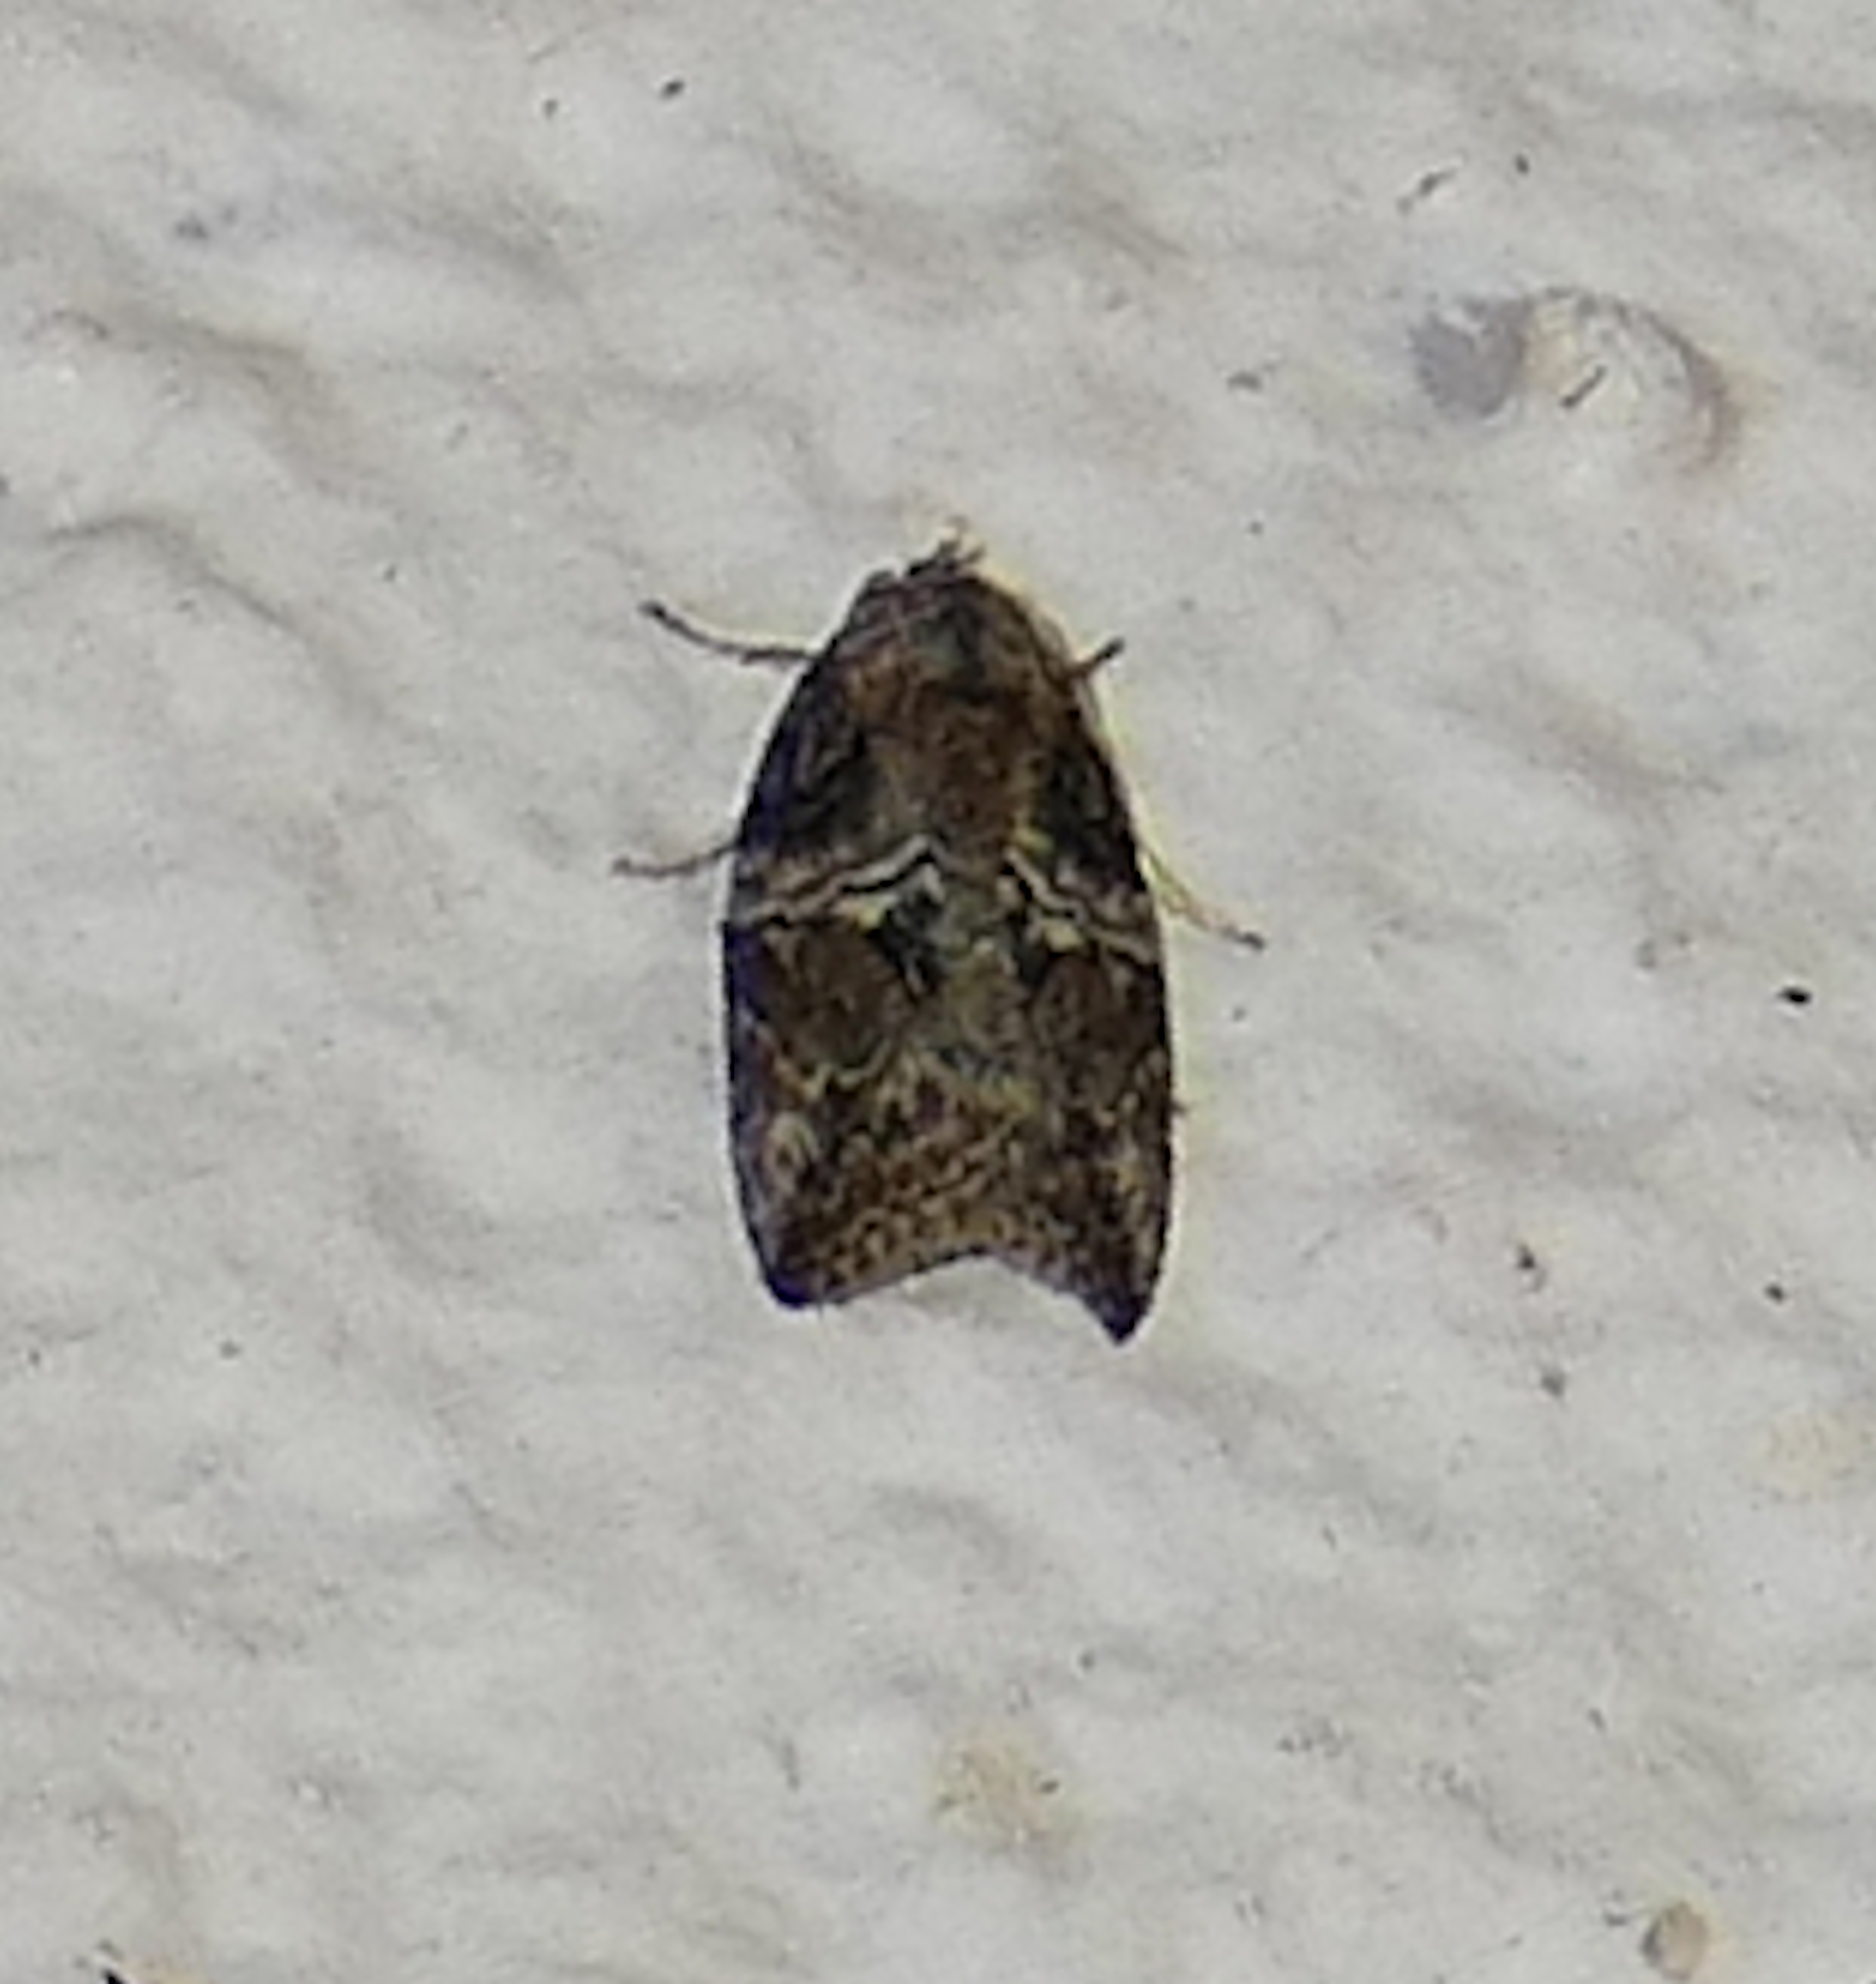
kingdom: Animalia
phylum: Arthropoda
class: Insecta
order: Lepidoptera
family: Nolidae
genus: Garella
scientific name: Garella nilotica
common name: Black-olive caterpillar moth
